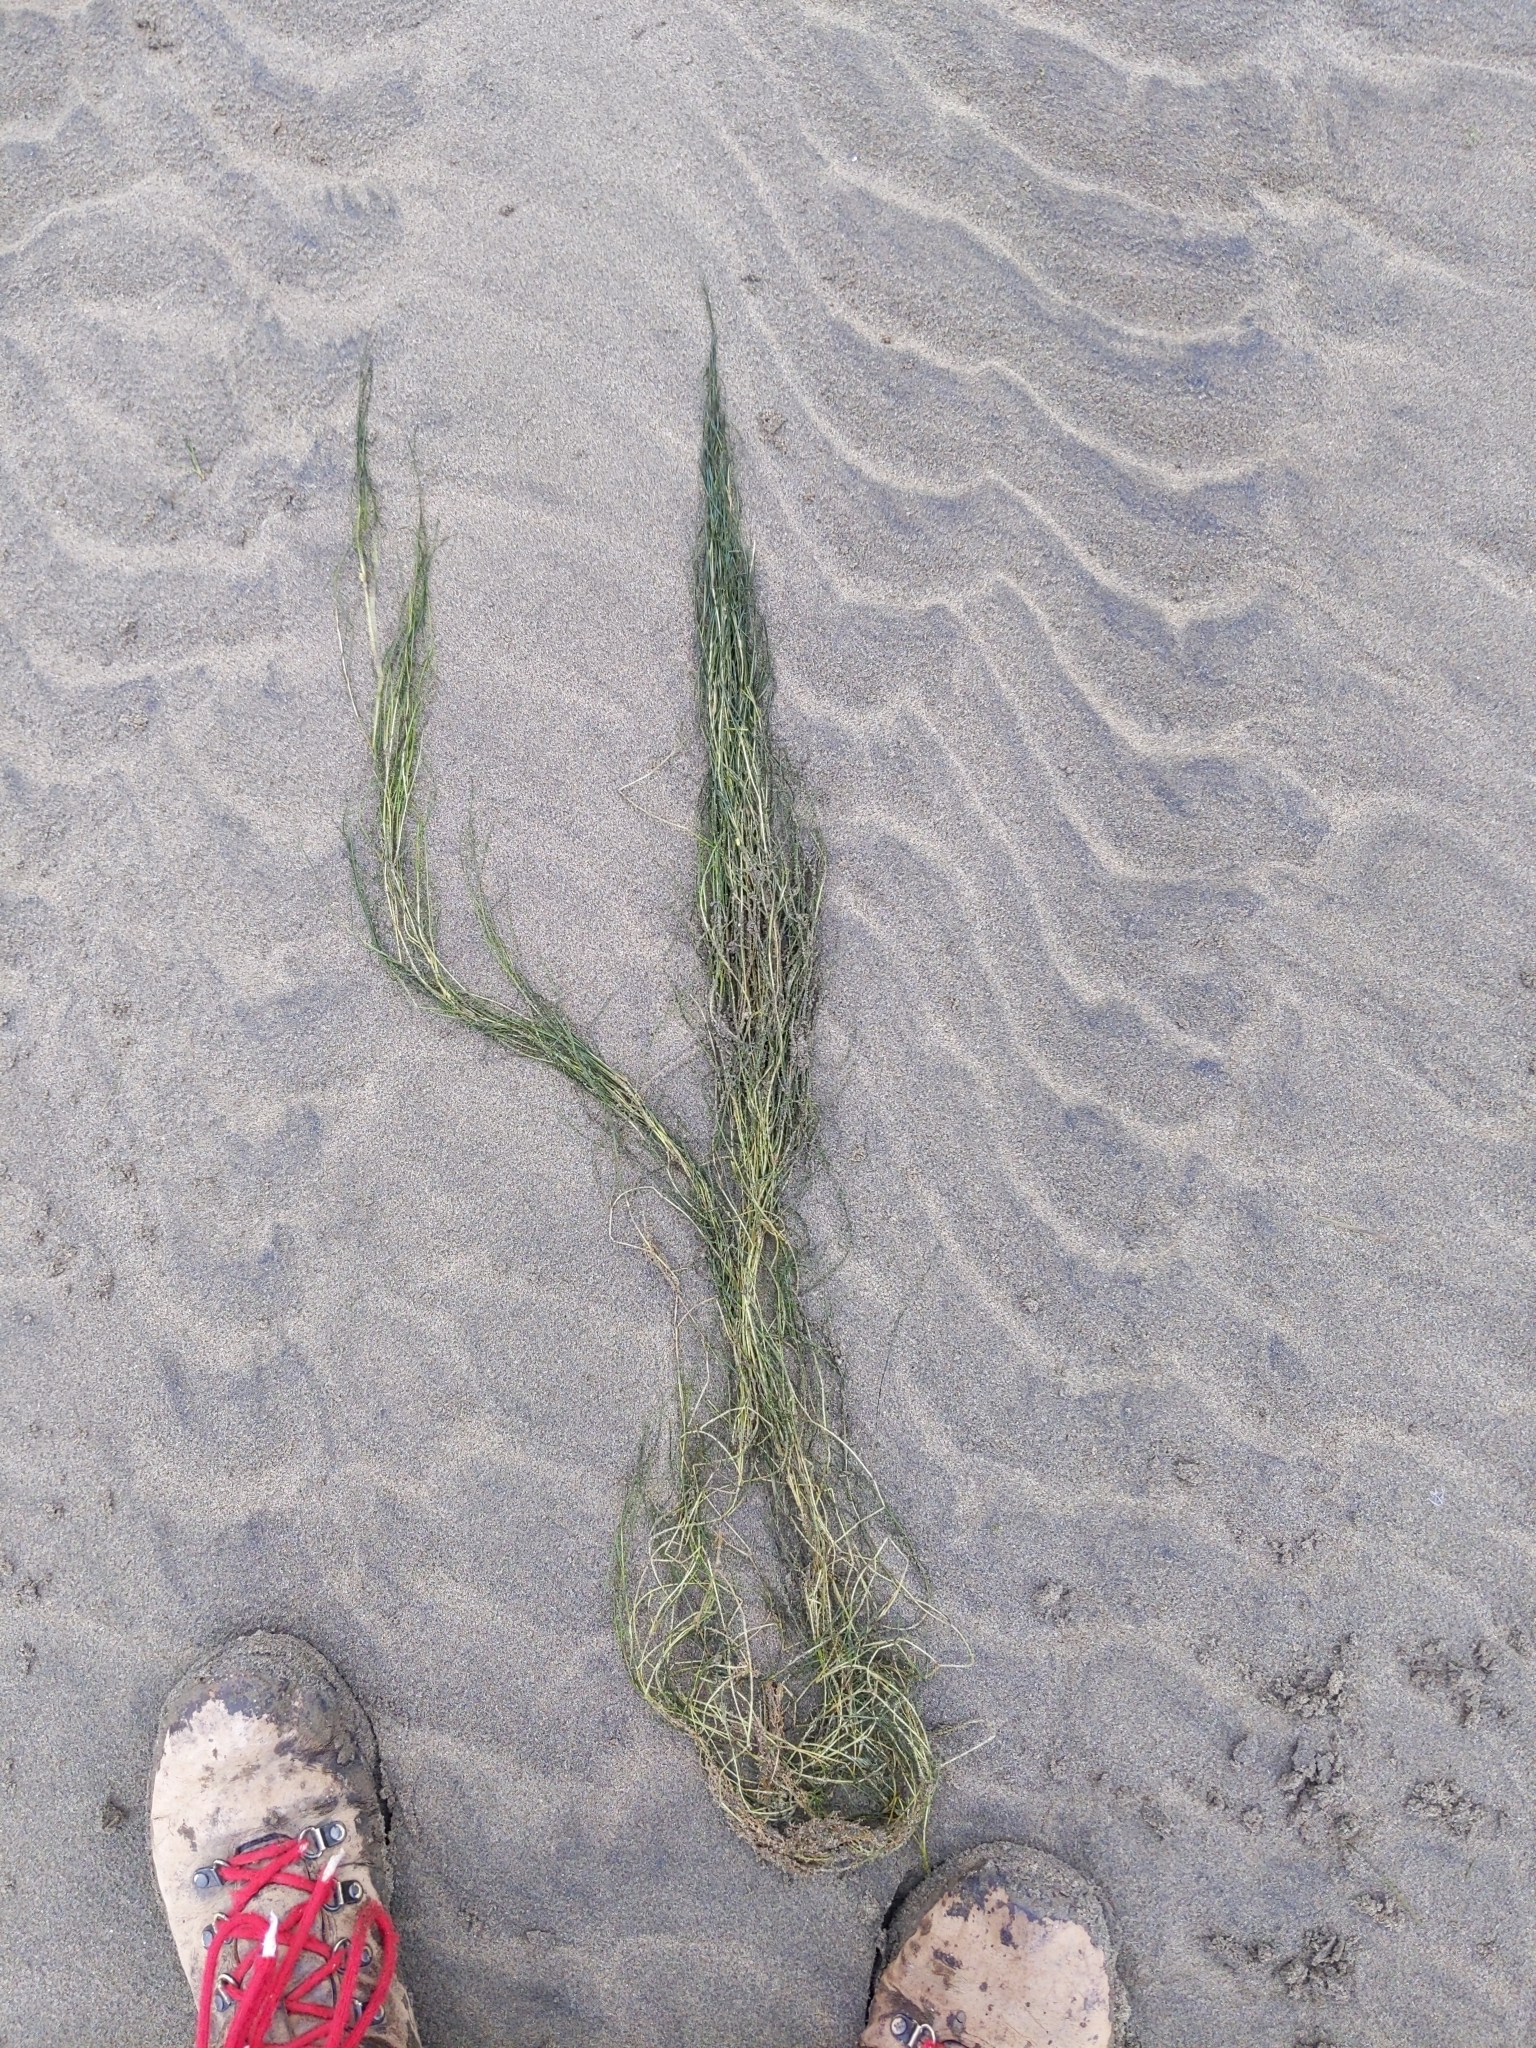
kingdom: Plantae
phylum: Tracheophyta
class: Liliopsida
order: Alismatales
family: Ruppiaceae
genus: Ruppia
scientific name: Ruppia maritima
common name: Beaked tasselweed
